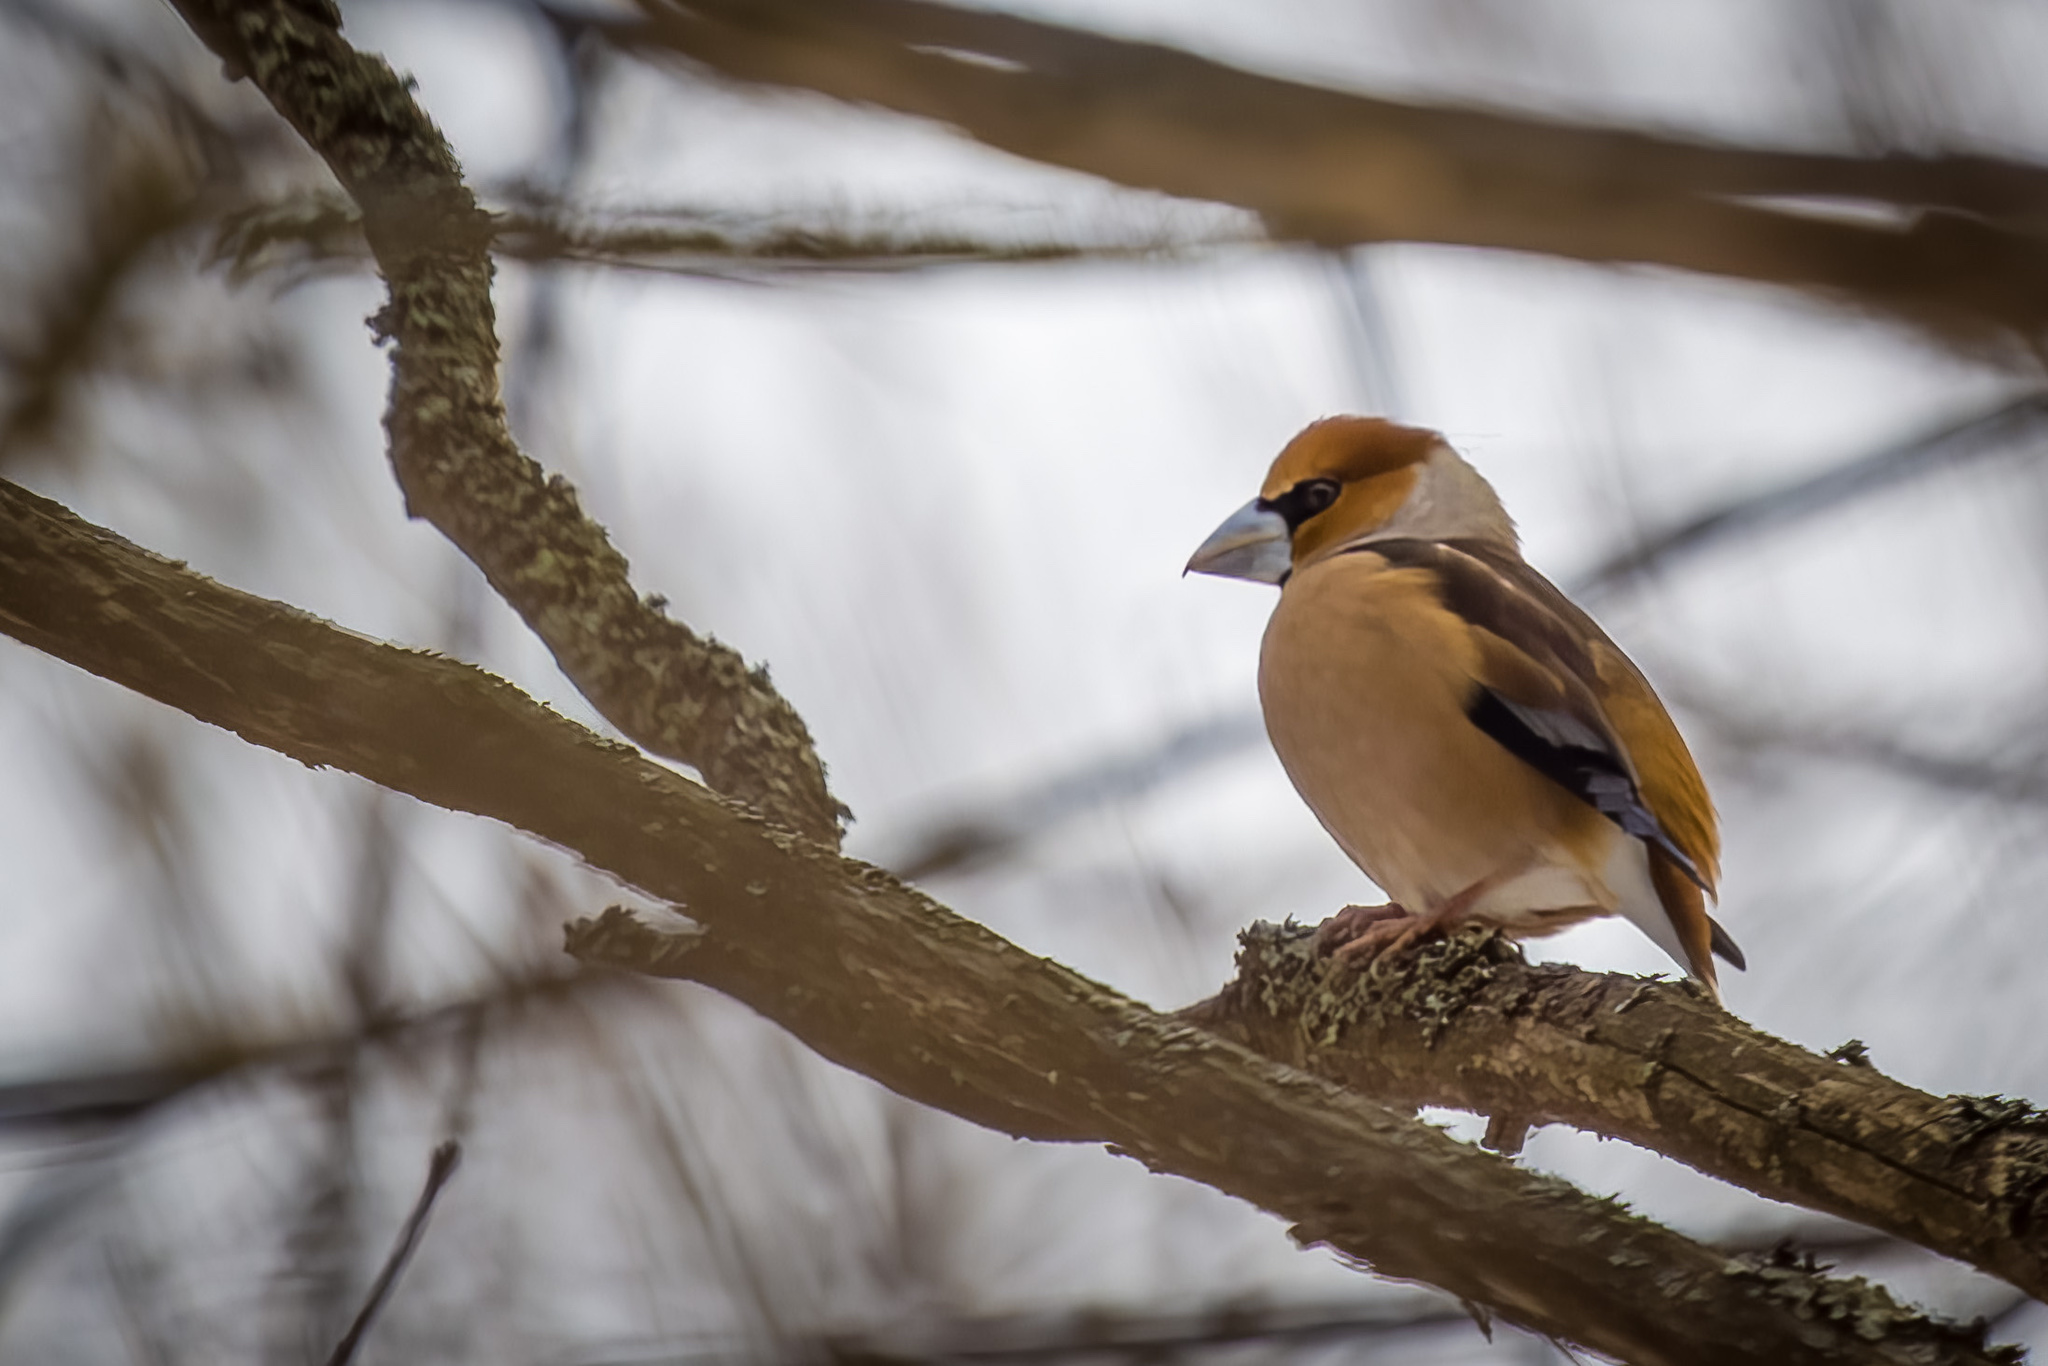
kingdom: Animalia
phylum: Chordata
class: Aves
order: Passeriformes
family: Fringillidae
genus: Coccothraustes
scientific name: Coccothraustes coccothraustes
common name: Hawfinch
